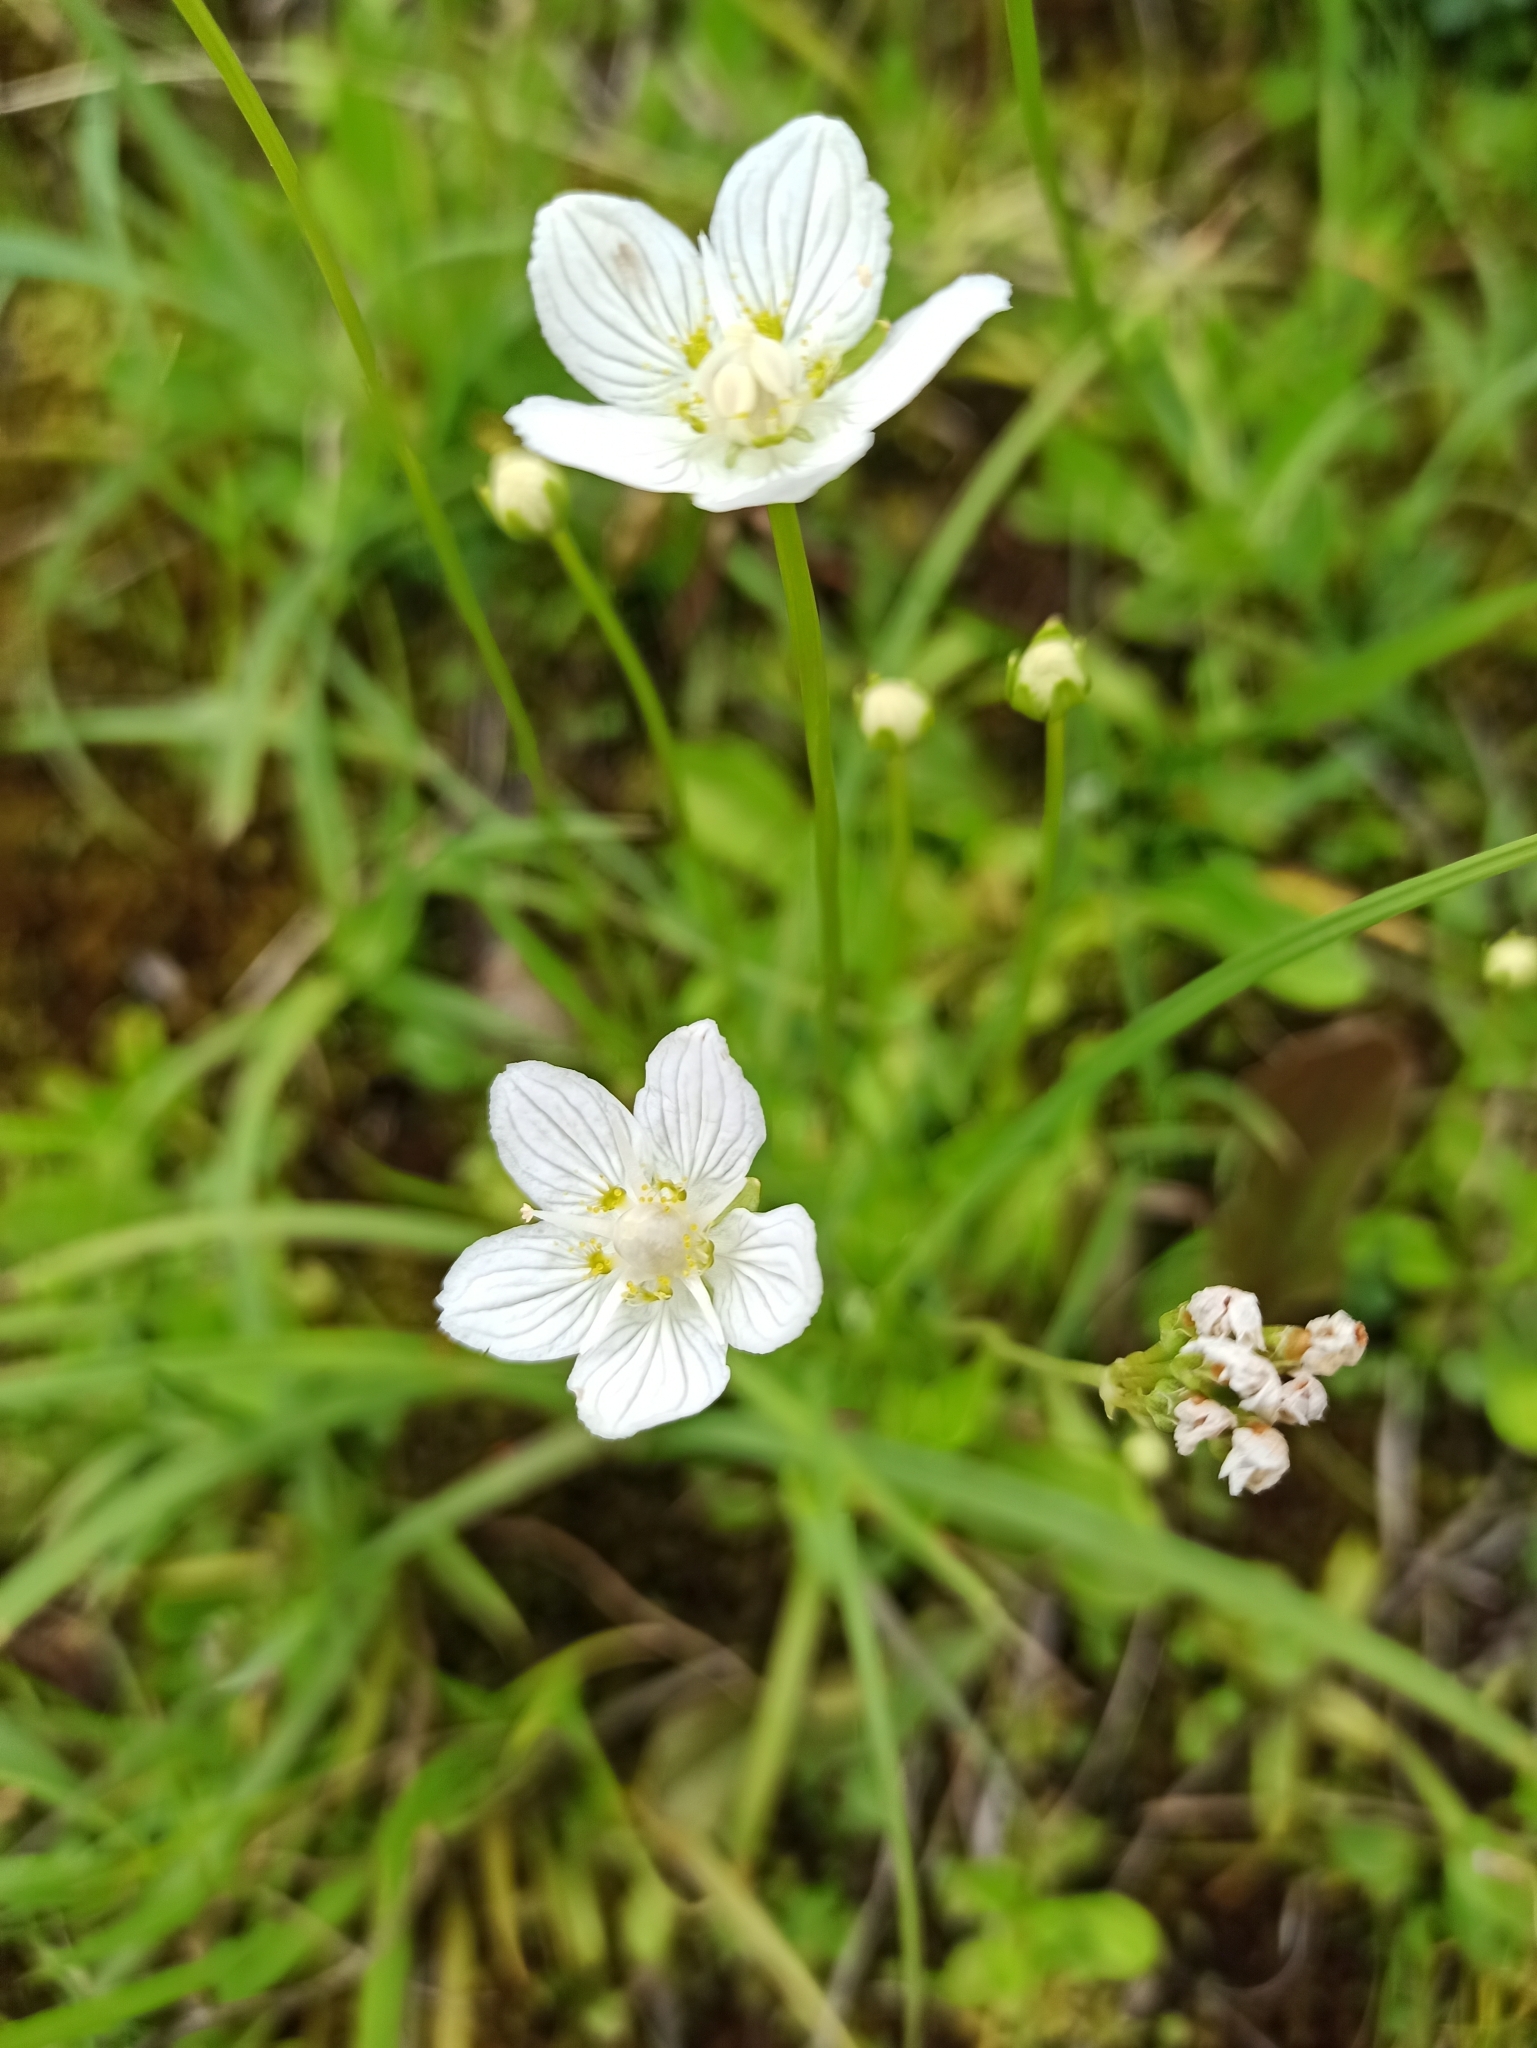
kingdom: Plantae
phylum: Tracheophyta
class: Magnoliopsida
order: Celastrales
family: Parnassiaceae
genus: Parnassia
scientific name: Parnassia palustris
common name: Grass-of-parnassus
